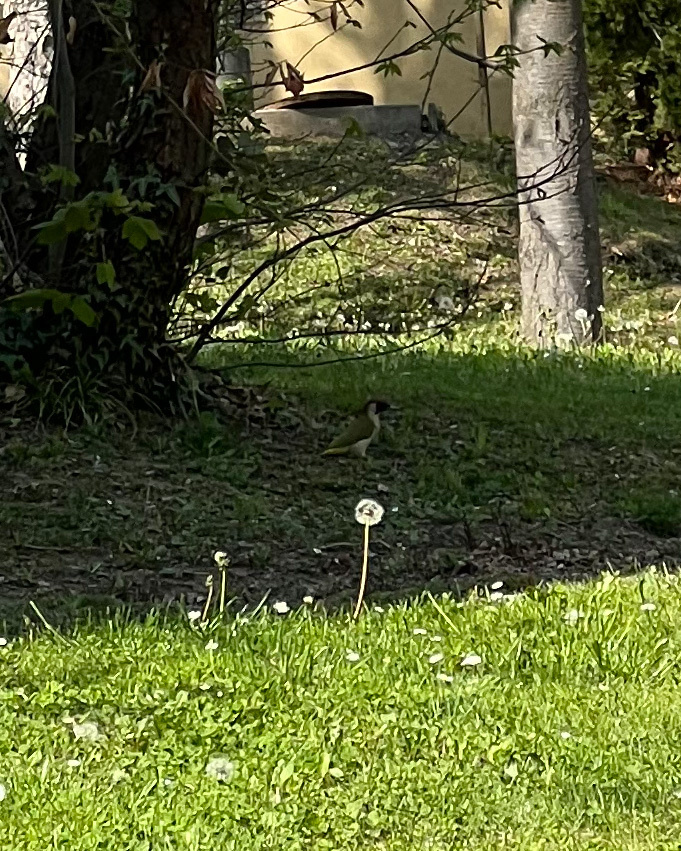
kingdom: Animalia
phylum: Chordata
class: Aves
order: Piciformes
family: Picidae
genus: Picus
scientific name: Picus viridis
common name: European green woodpecker
